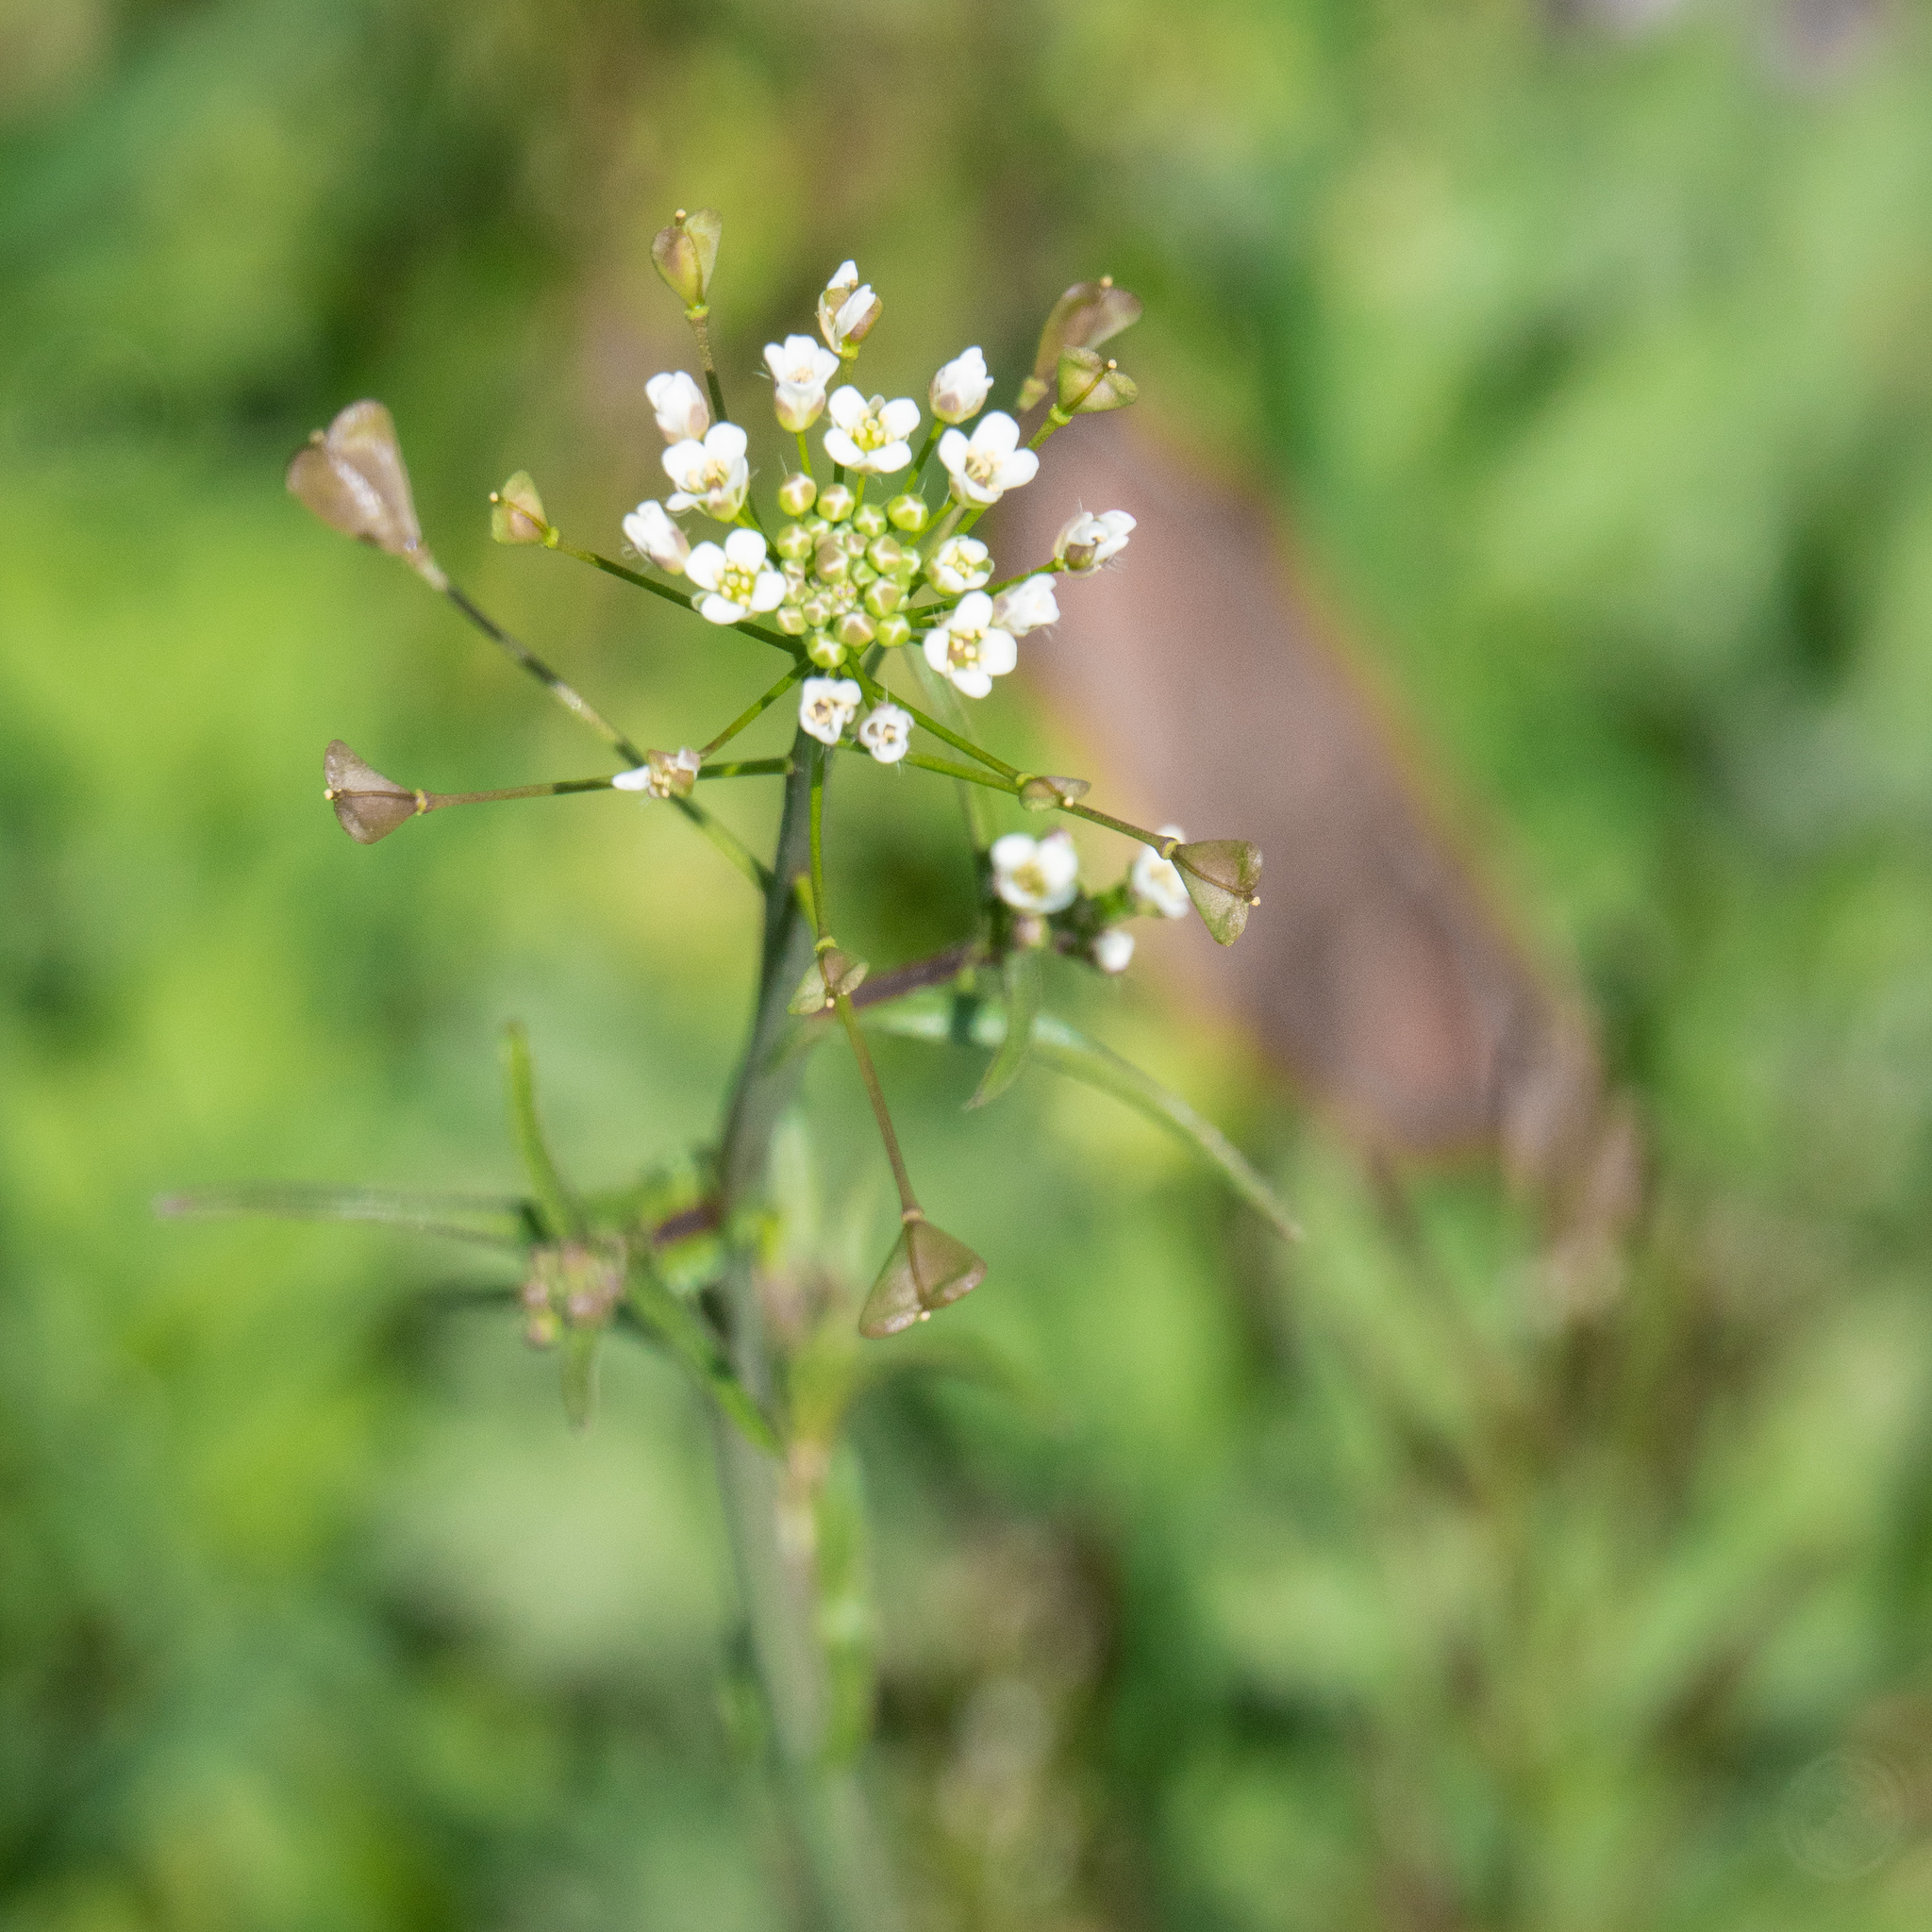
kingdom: Plantae
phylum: Tracheophyta
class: Magnoliopsida
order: Brassicales
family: Brassicaceae
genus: Capsella
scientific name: Capsella bursa-pastoris
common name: Shepherd's purse
